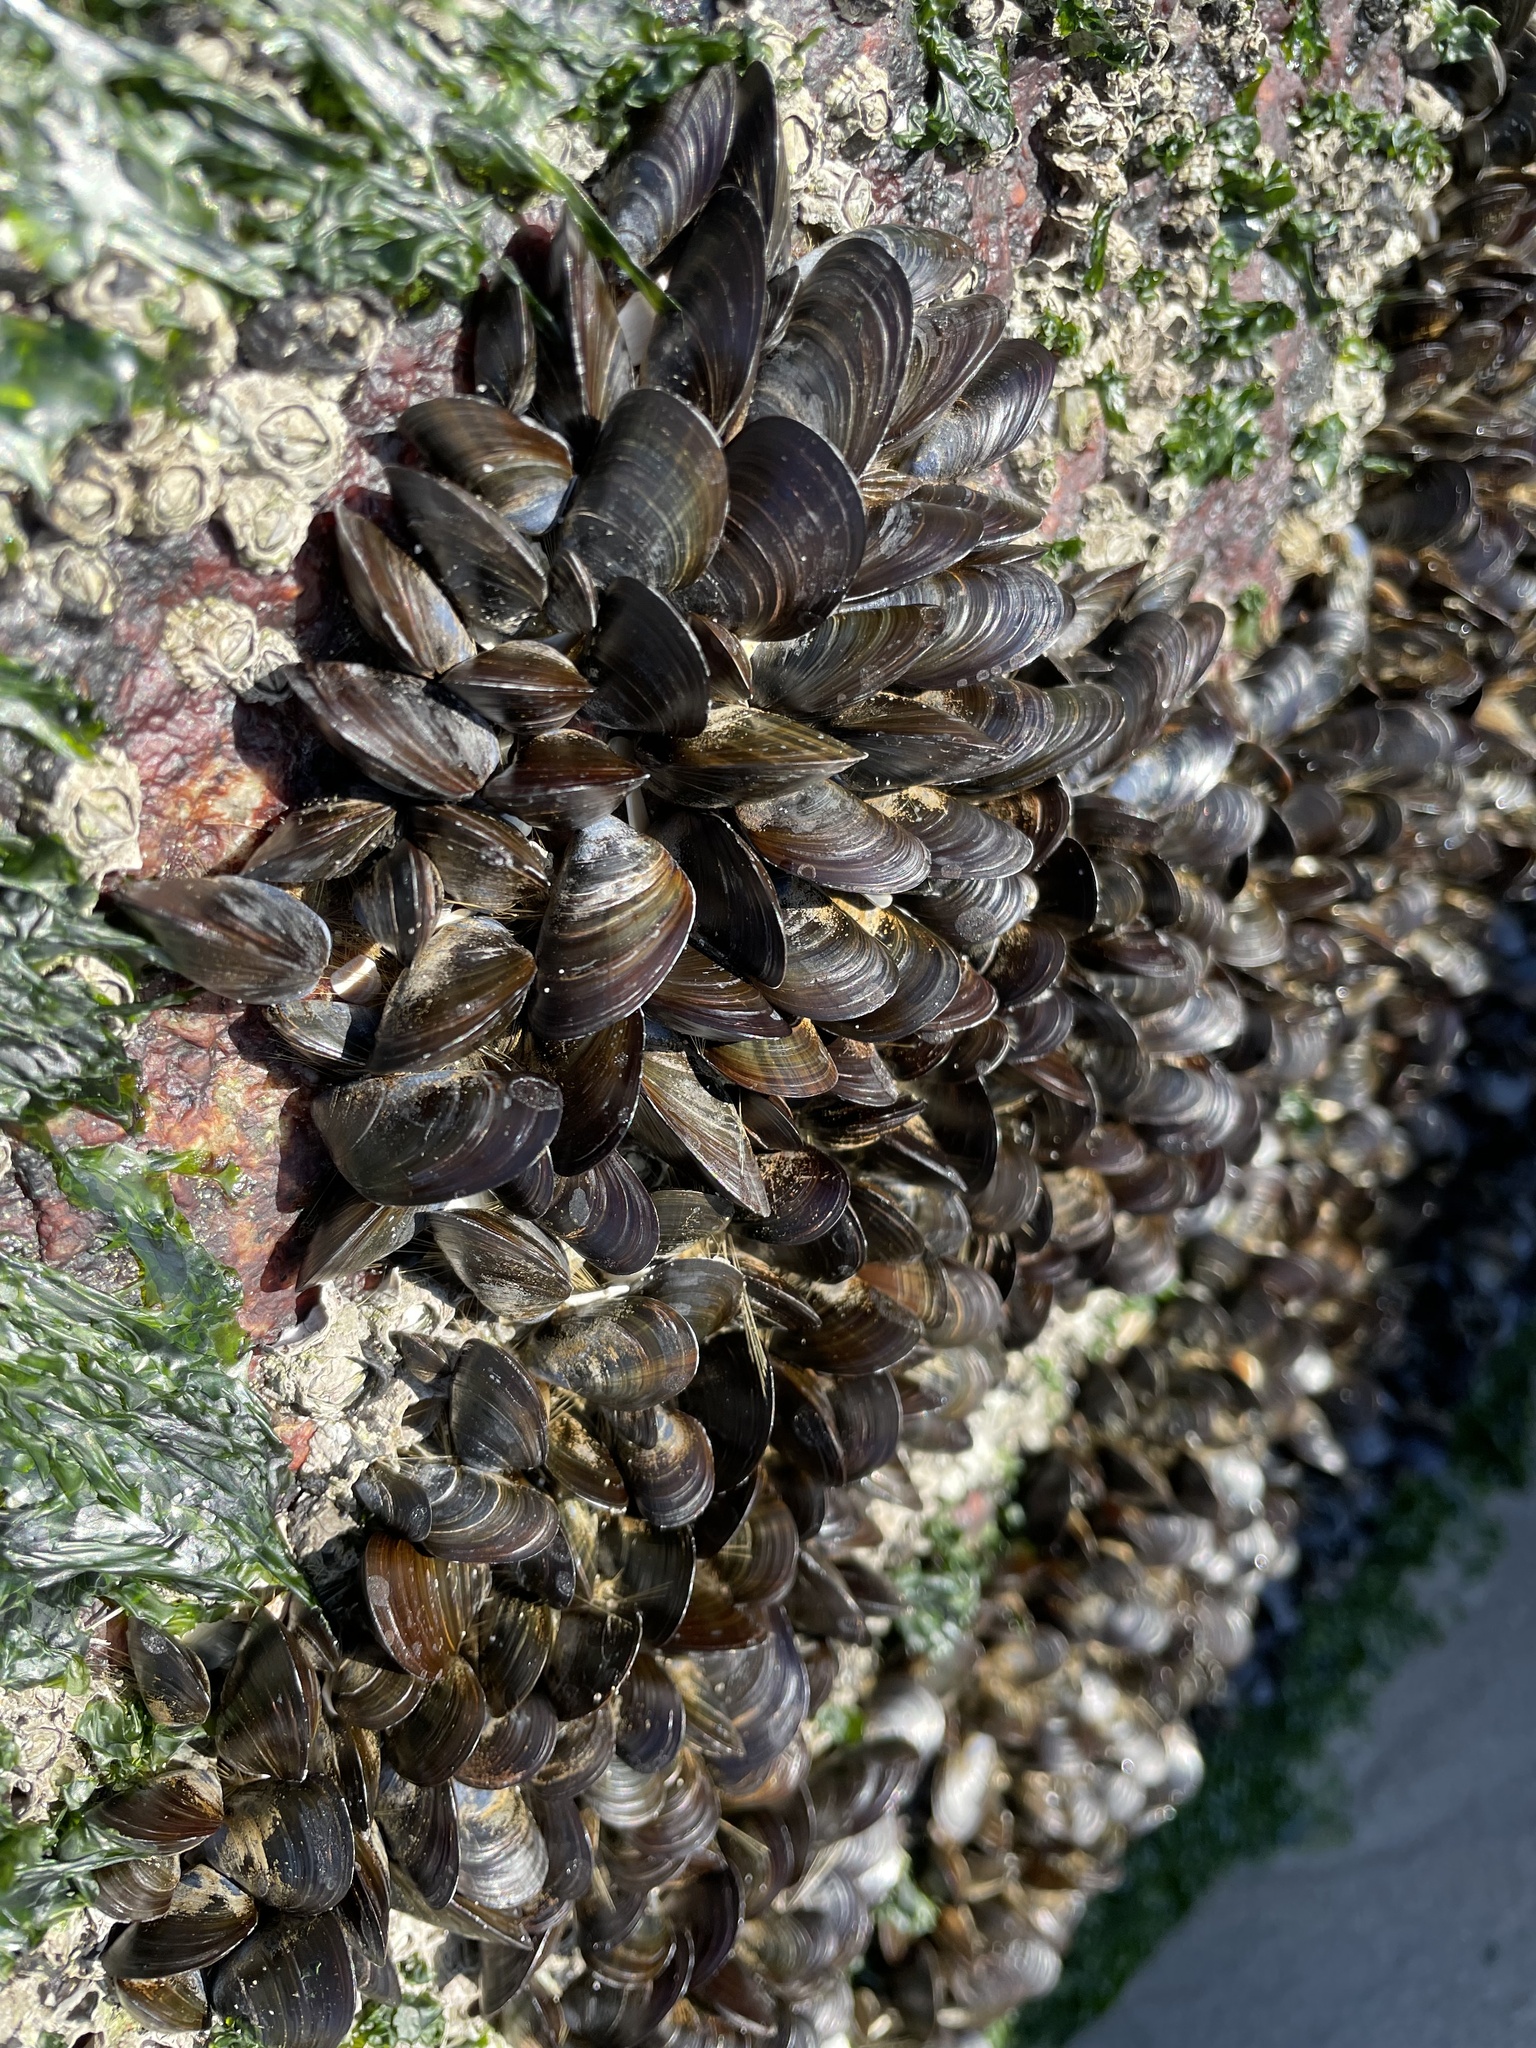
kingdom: Animalia
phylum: Mollusca
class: Bivalvia
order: Mytilida
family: Mytilidae
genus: Mytilus
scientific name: Mytilus edulis
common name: Blue mussel
